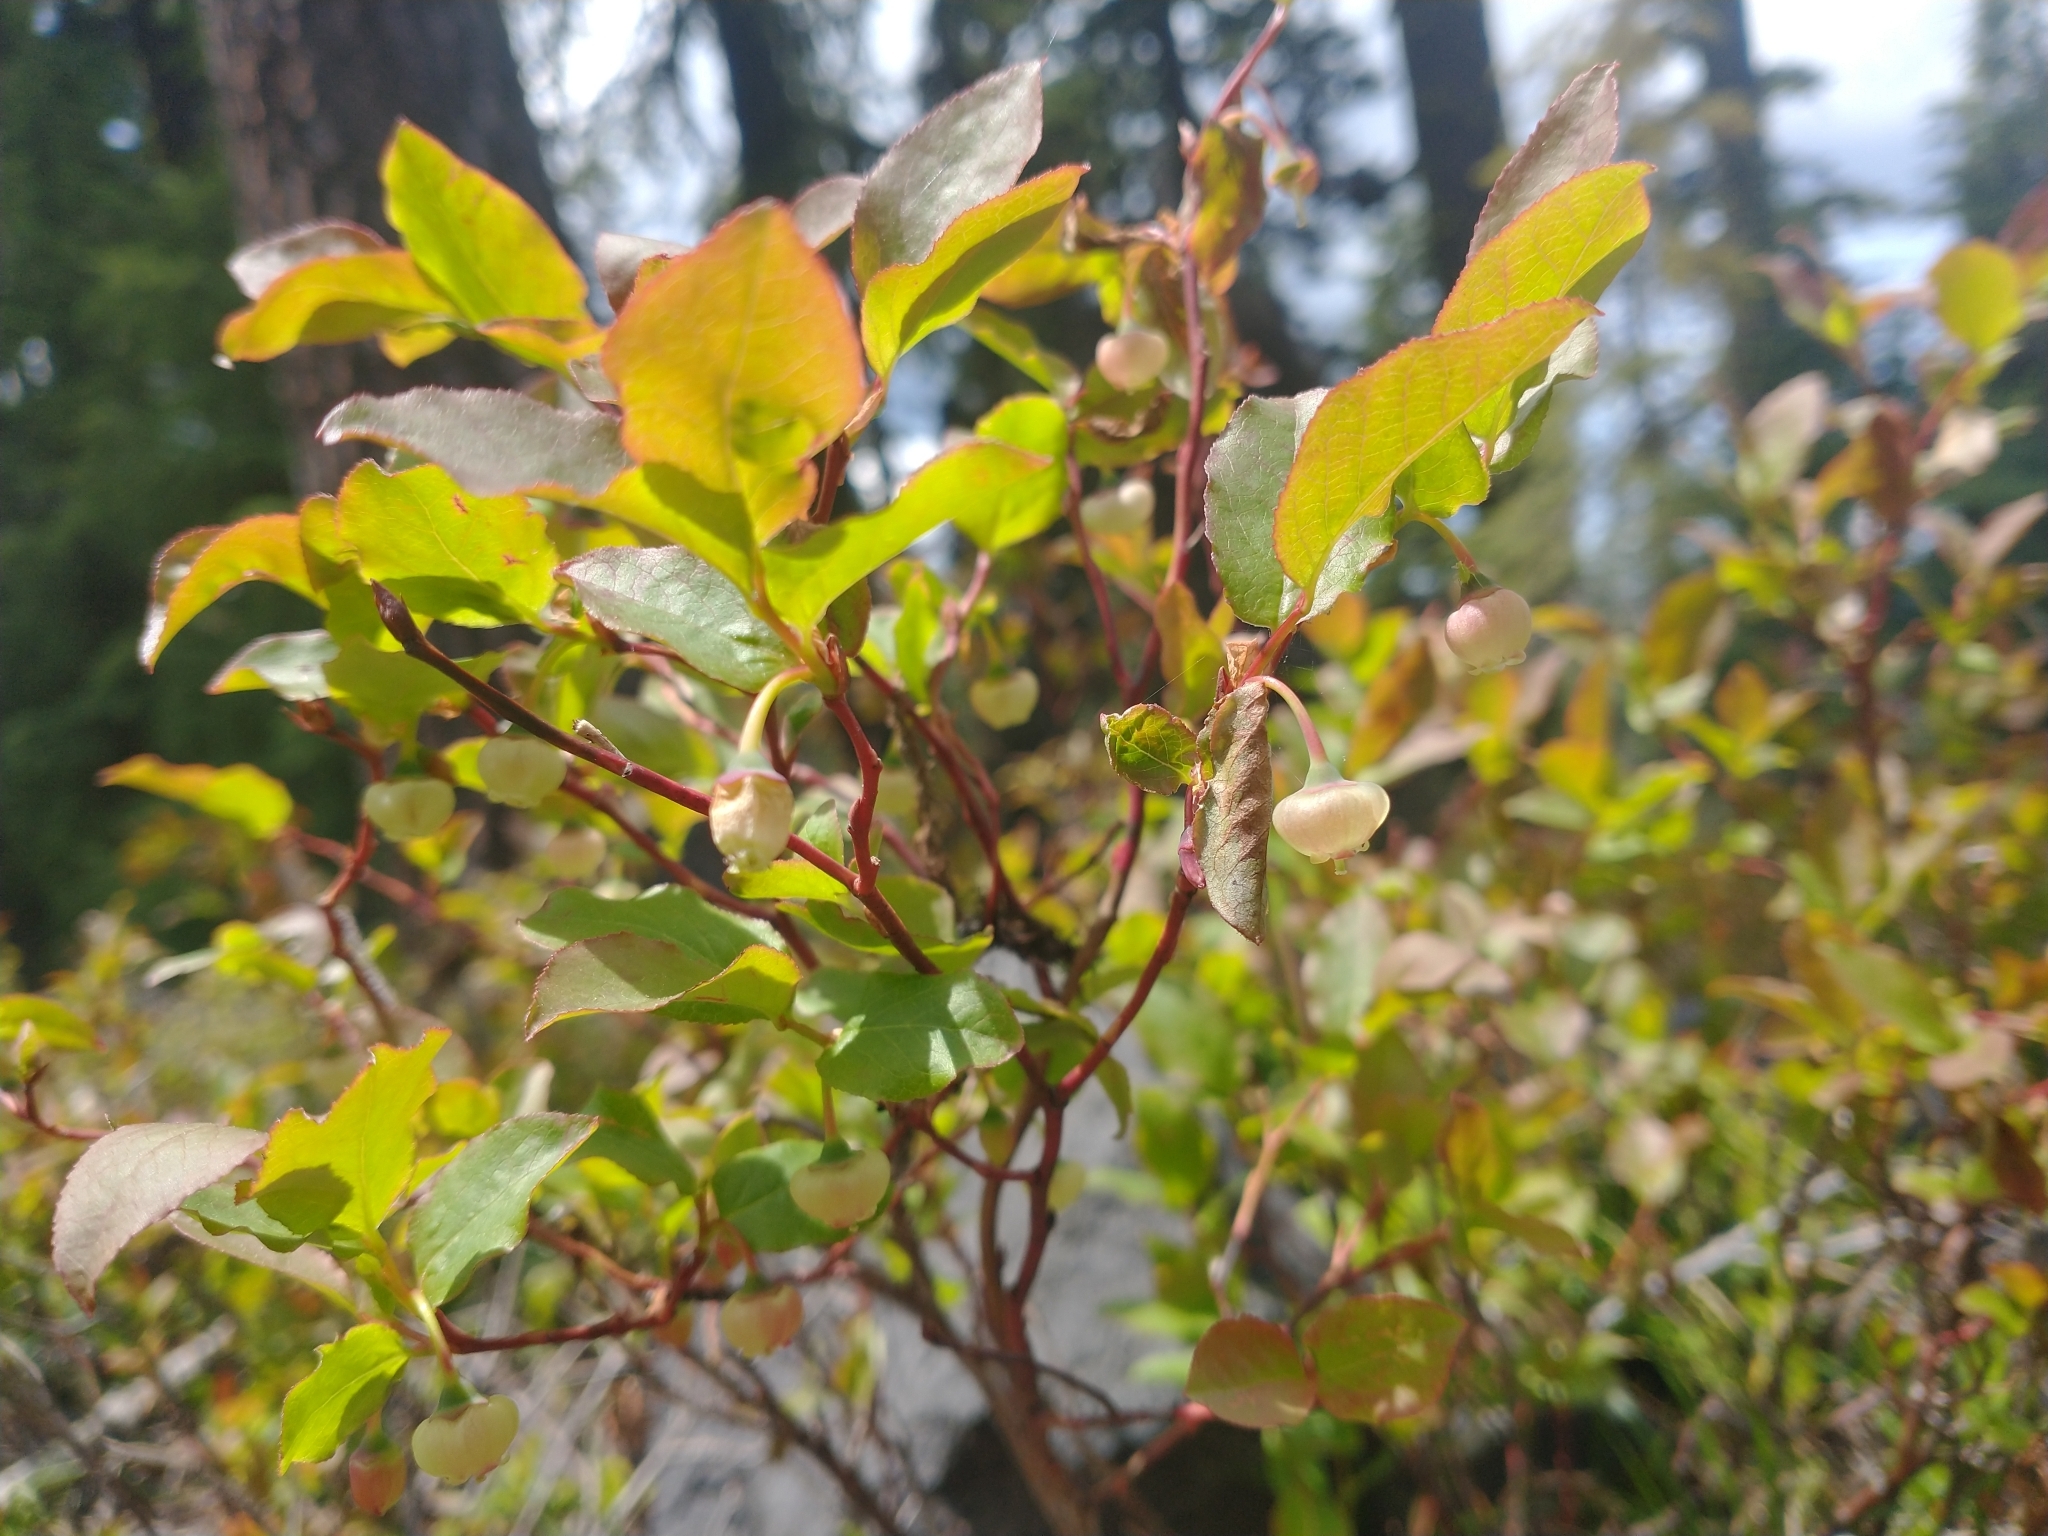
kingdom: Plantae
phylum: Tracheophyta
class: Magnoliopsida
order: Ericales
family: Ericaceae
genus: Vaccinium
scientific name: Vaccinium membranaceum
